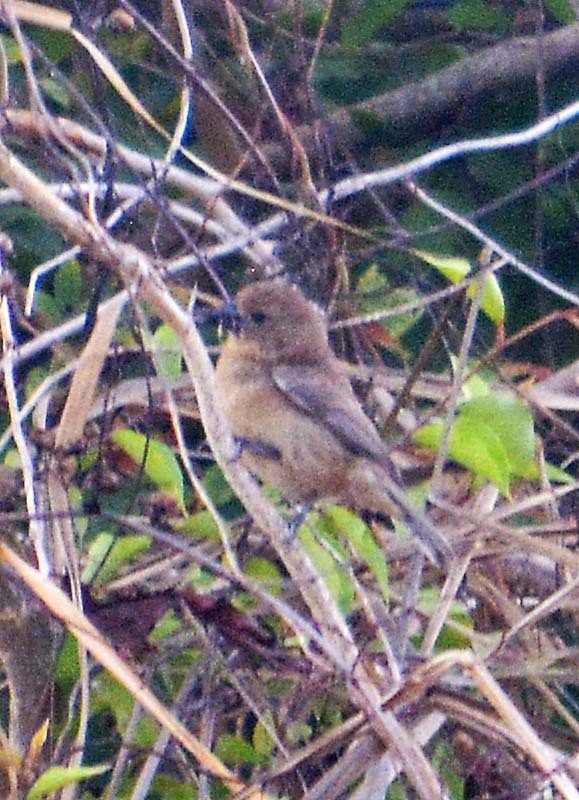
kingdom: Animalia
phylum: Chordata
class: Aves
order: Passeriformes
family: Cardinalidae
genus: Cyanocompsa
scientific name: Cyanocompsa parellina
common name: Blue bunting
